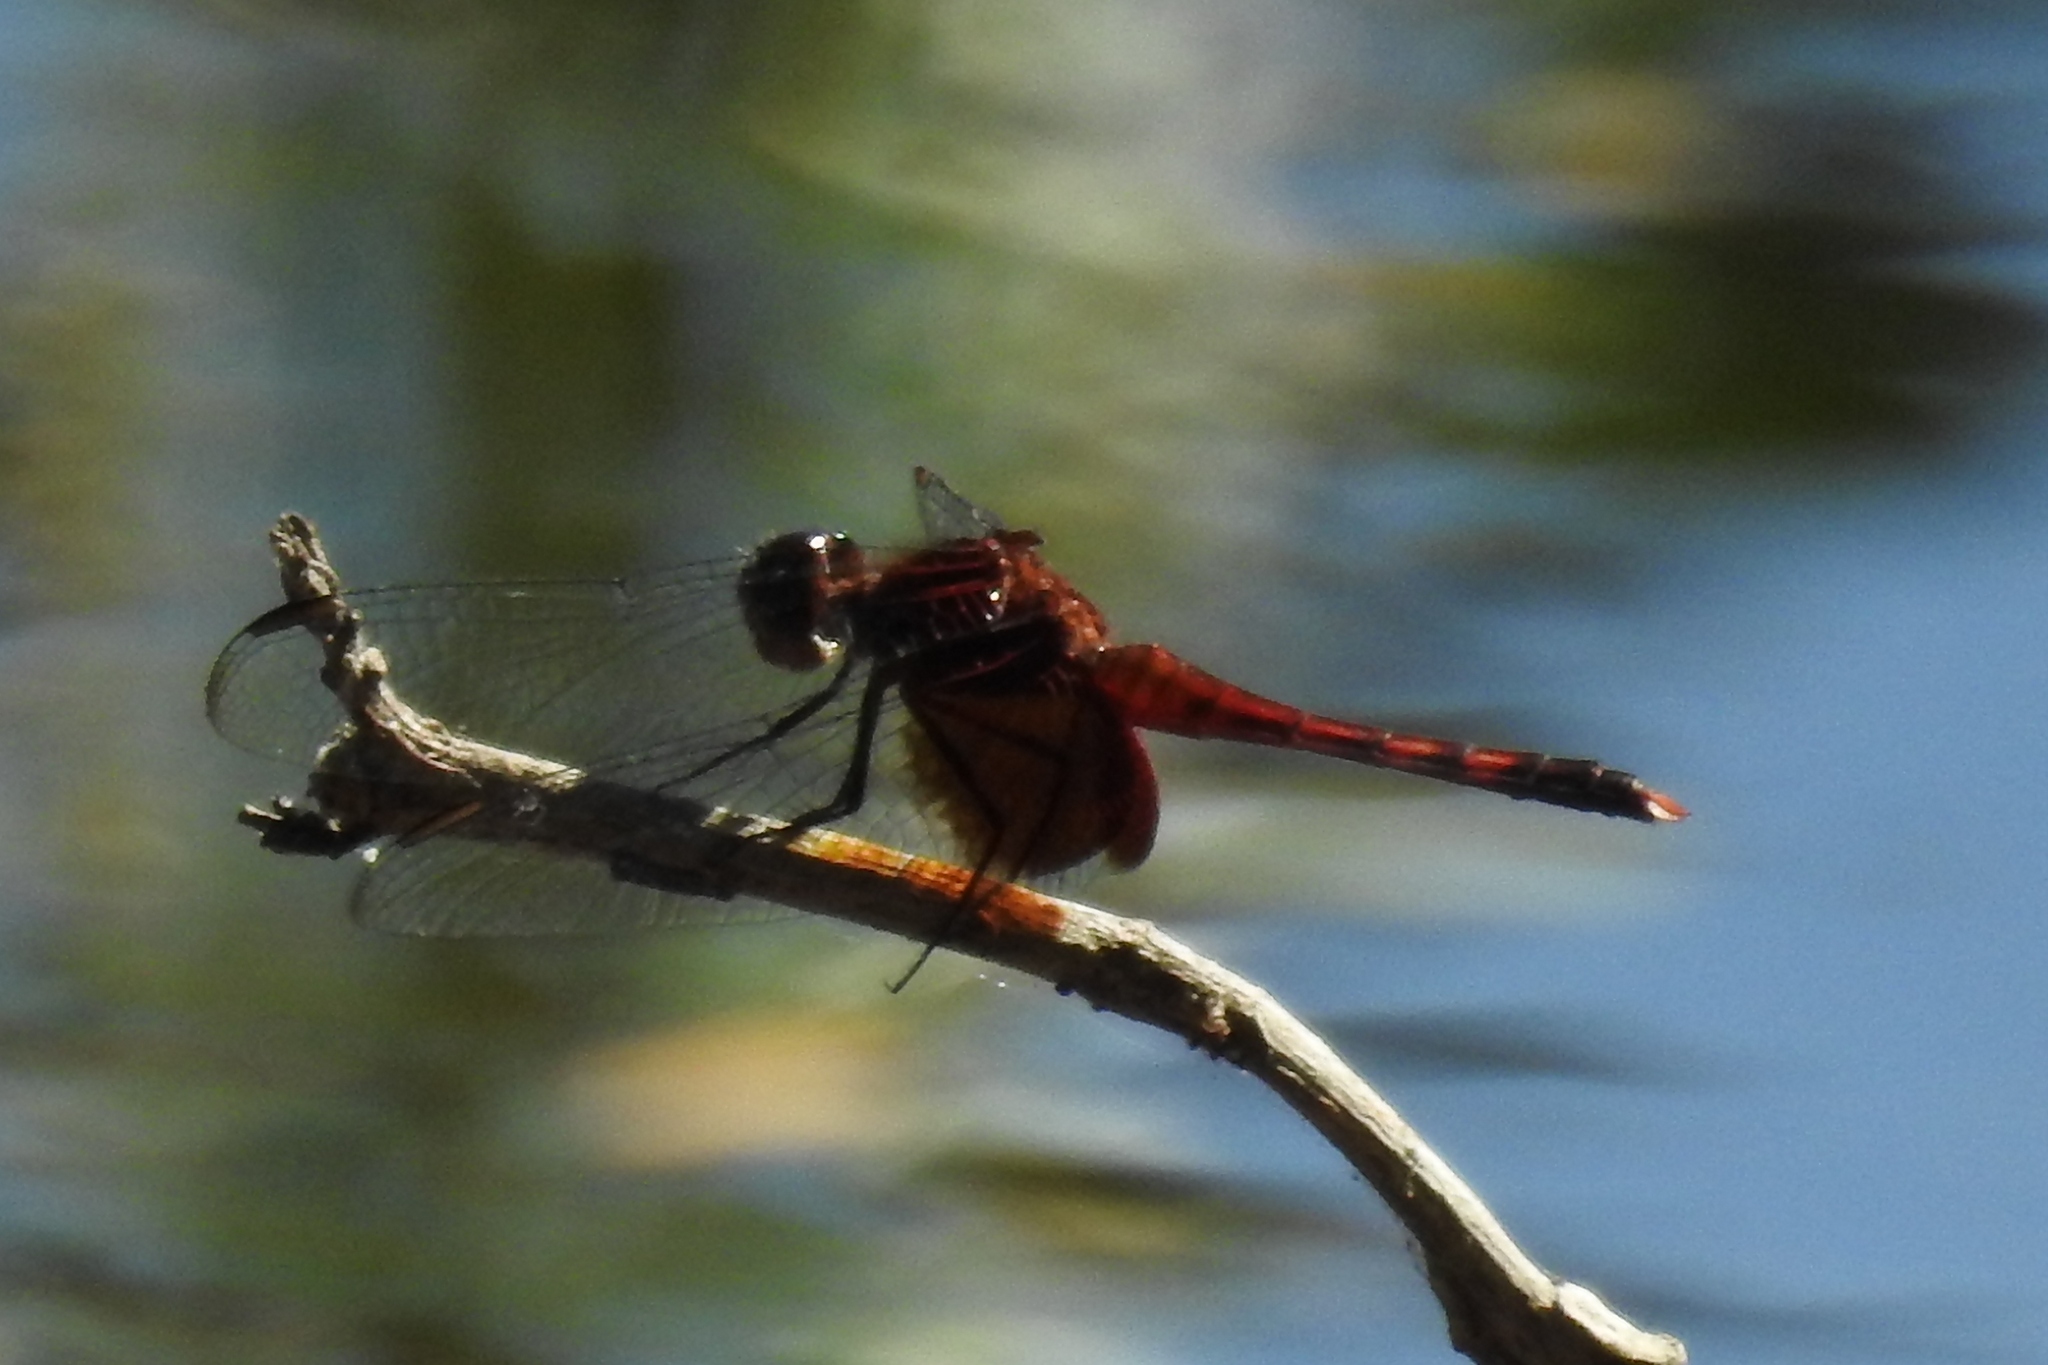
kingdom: Animalia
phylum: Arthropoda
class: Insecta
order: Odonata
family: Libellulidae
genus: Erythrodiplax
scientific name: Erythrodiplax fervida
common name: Red-mantled dragonlet
